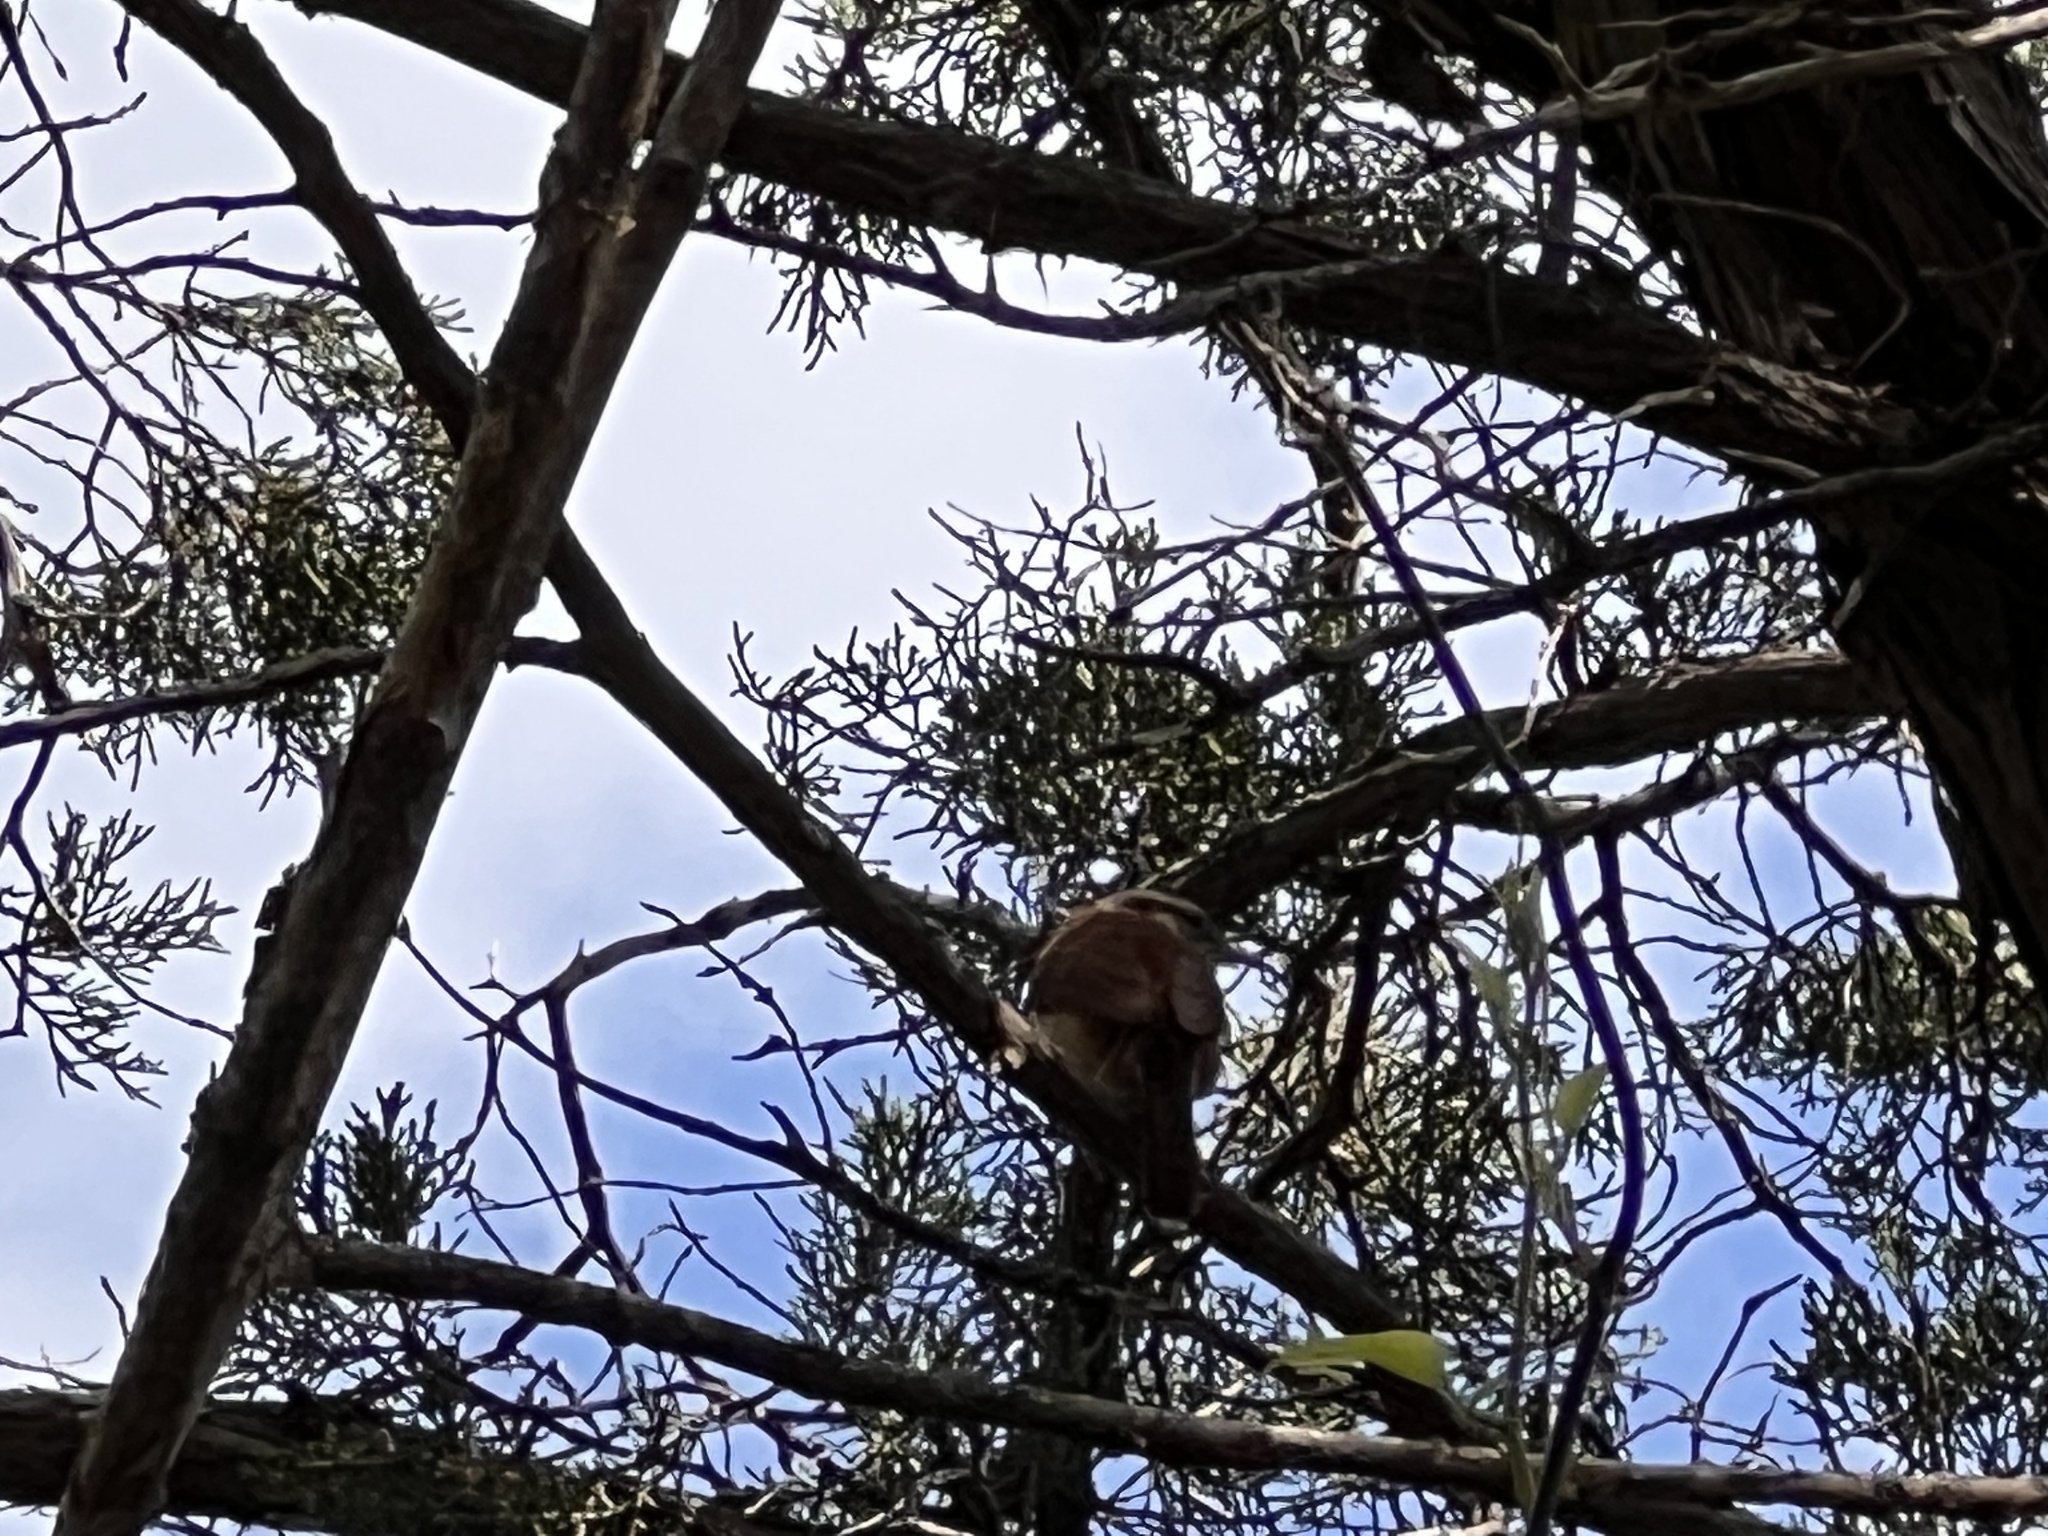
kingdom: Animalia
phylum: Chordata
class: Aves
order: Passeriformes
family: Troglodytidae
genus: Thryothorus
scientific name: Thryothorus ludovicianus
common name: Carolina wren
